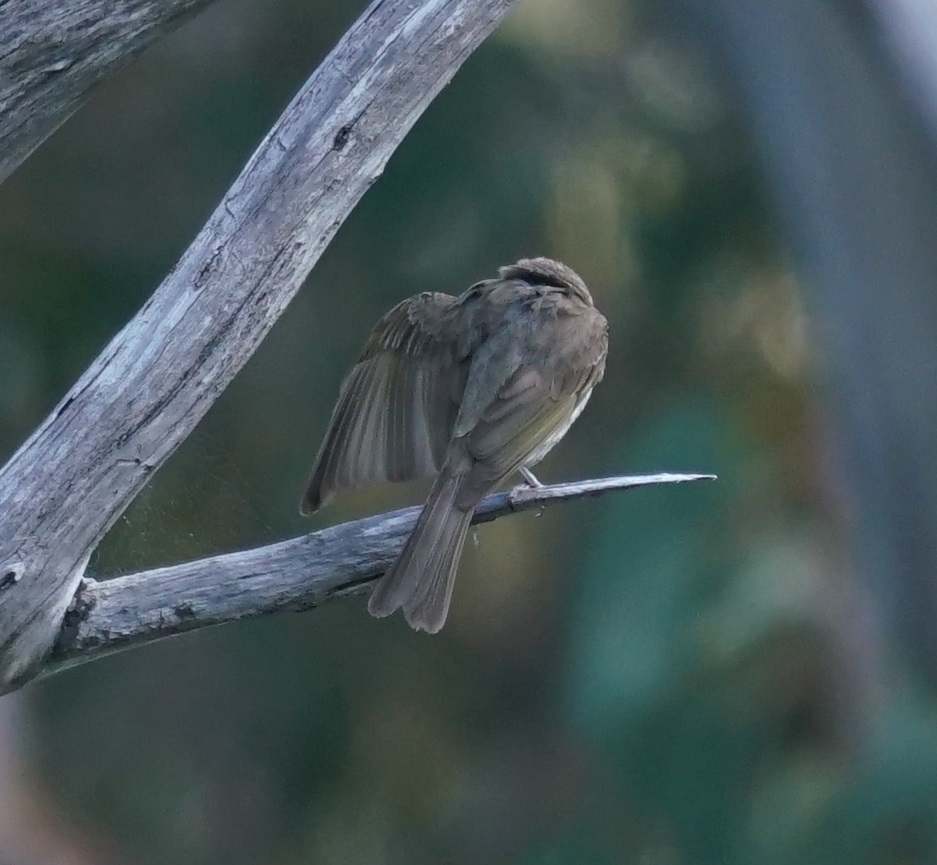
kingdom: Animalia
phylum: Chordata
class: Aves
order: Passeriformes
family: Meliphagidae
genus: Caligavis
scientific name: Caligavis chrysops
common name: Yellow-faced honeyeater
